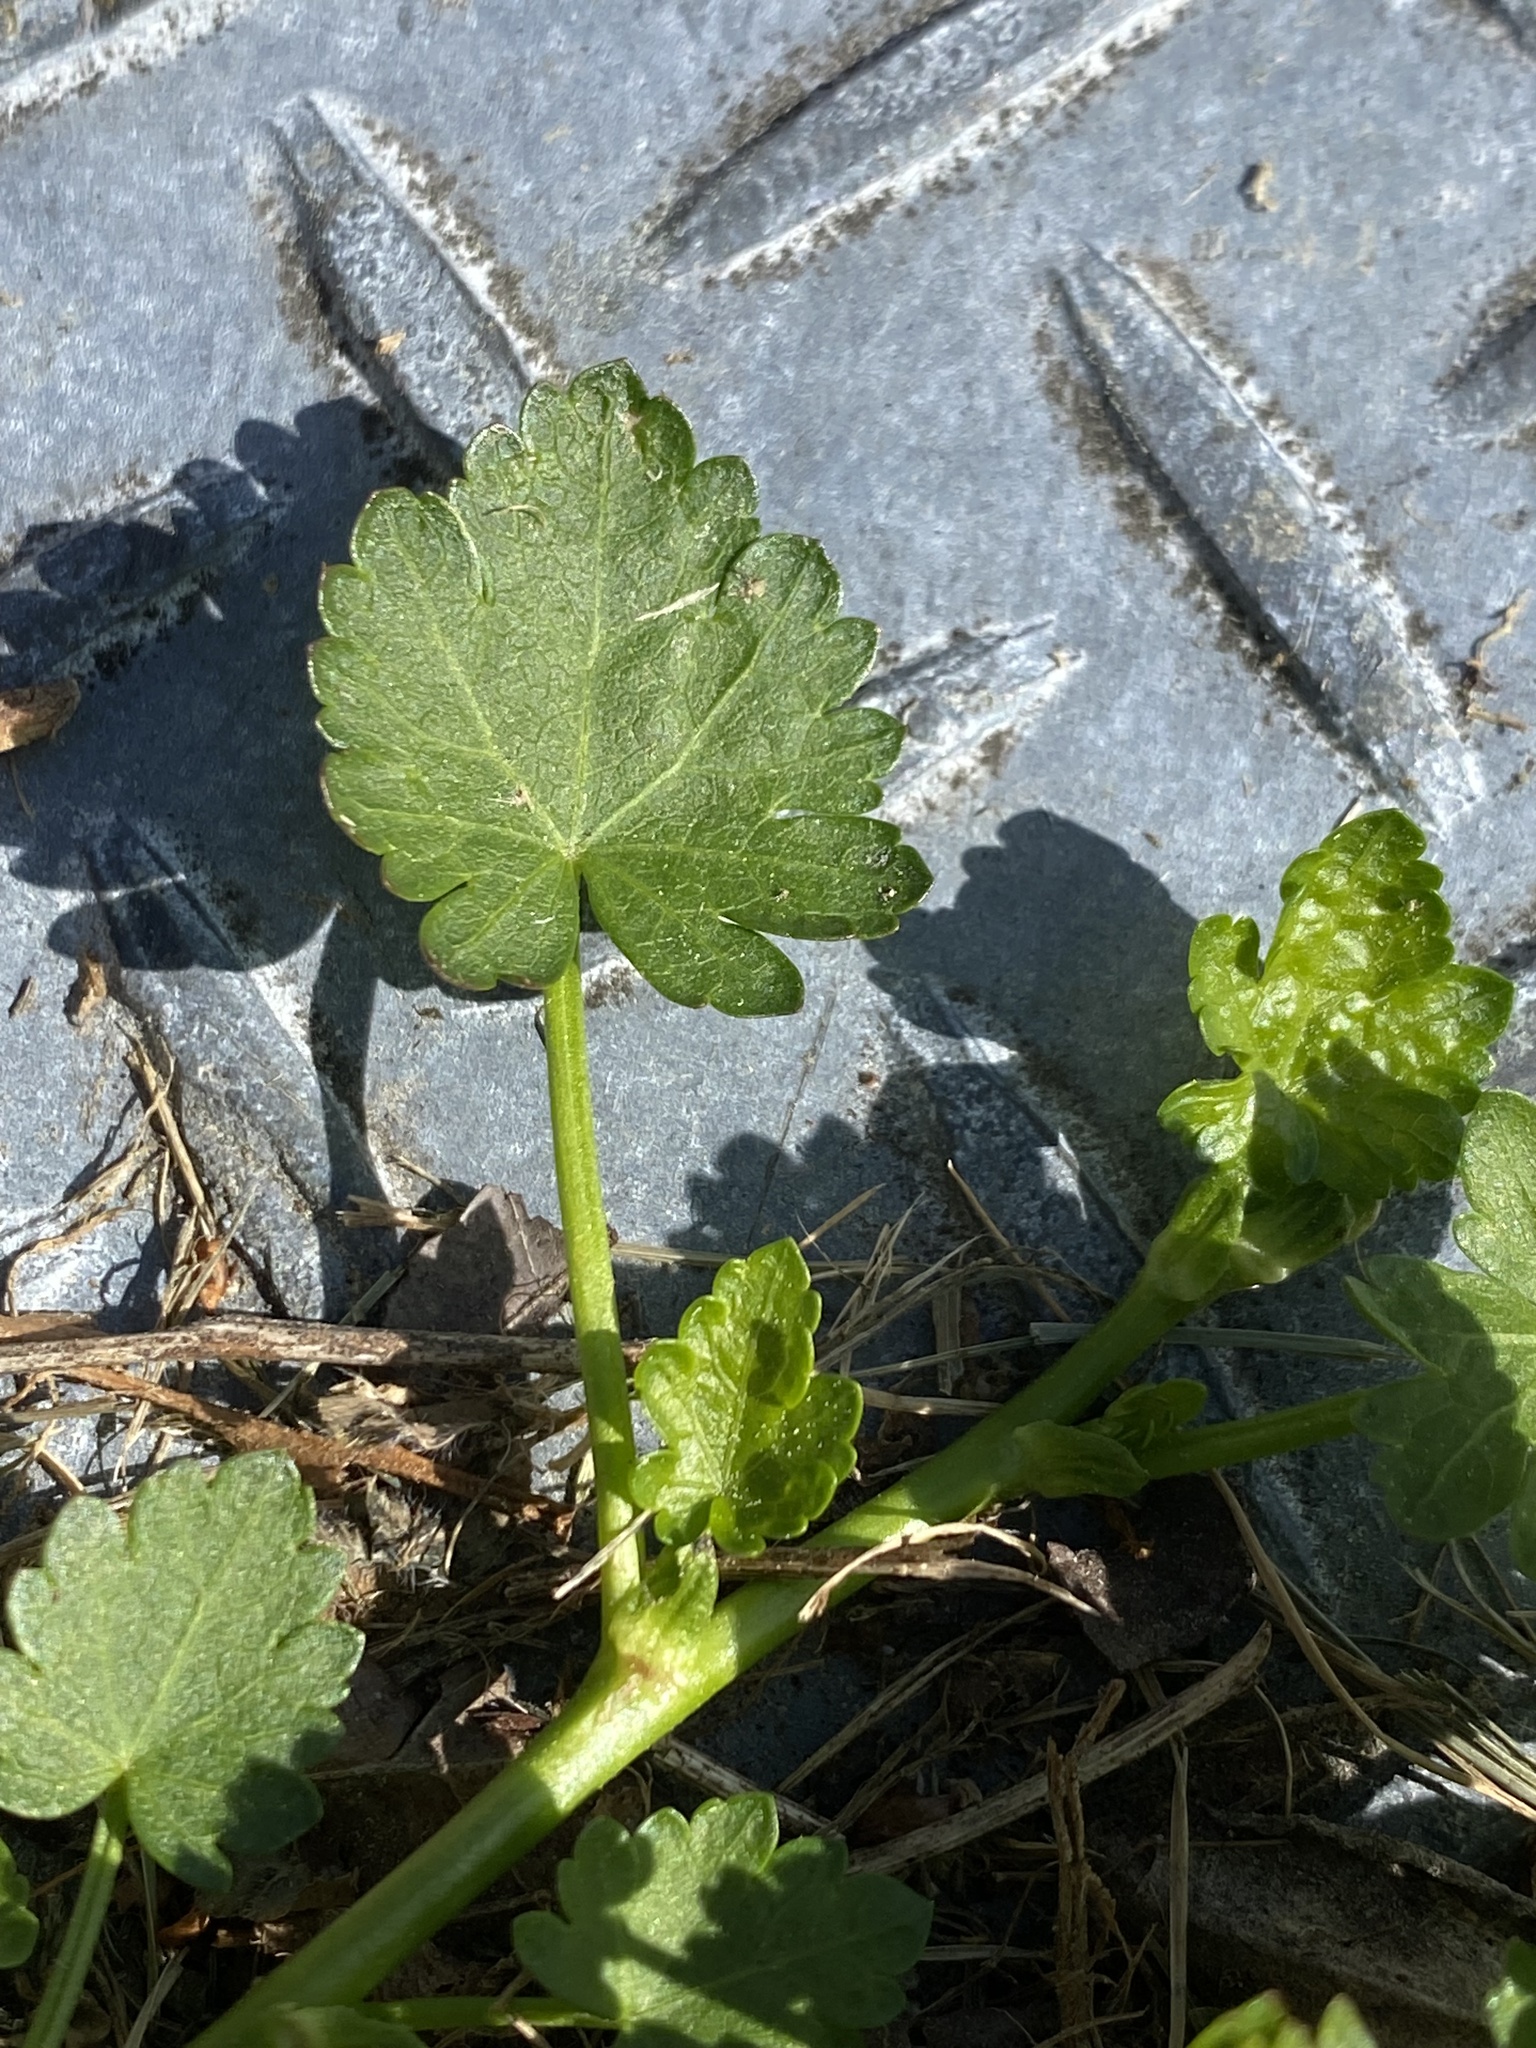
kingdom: Plantae
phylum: Tracheophyta
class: Magnoliopsida
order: Malvales
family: Malvaceae
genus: Modiola
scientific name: Modiola caroliniana
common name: Carolina bristlemallow
